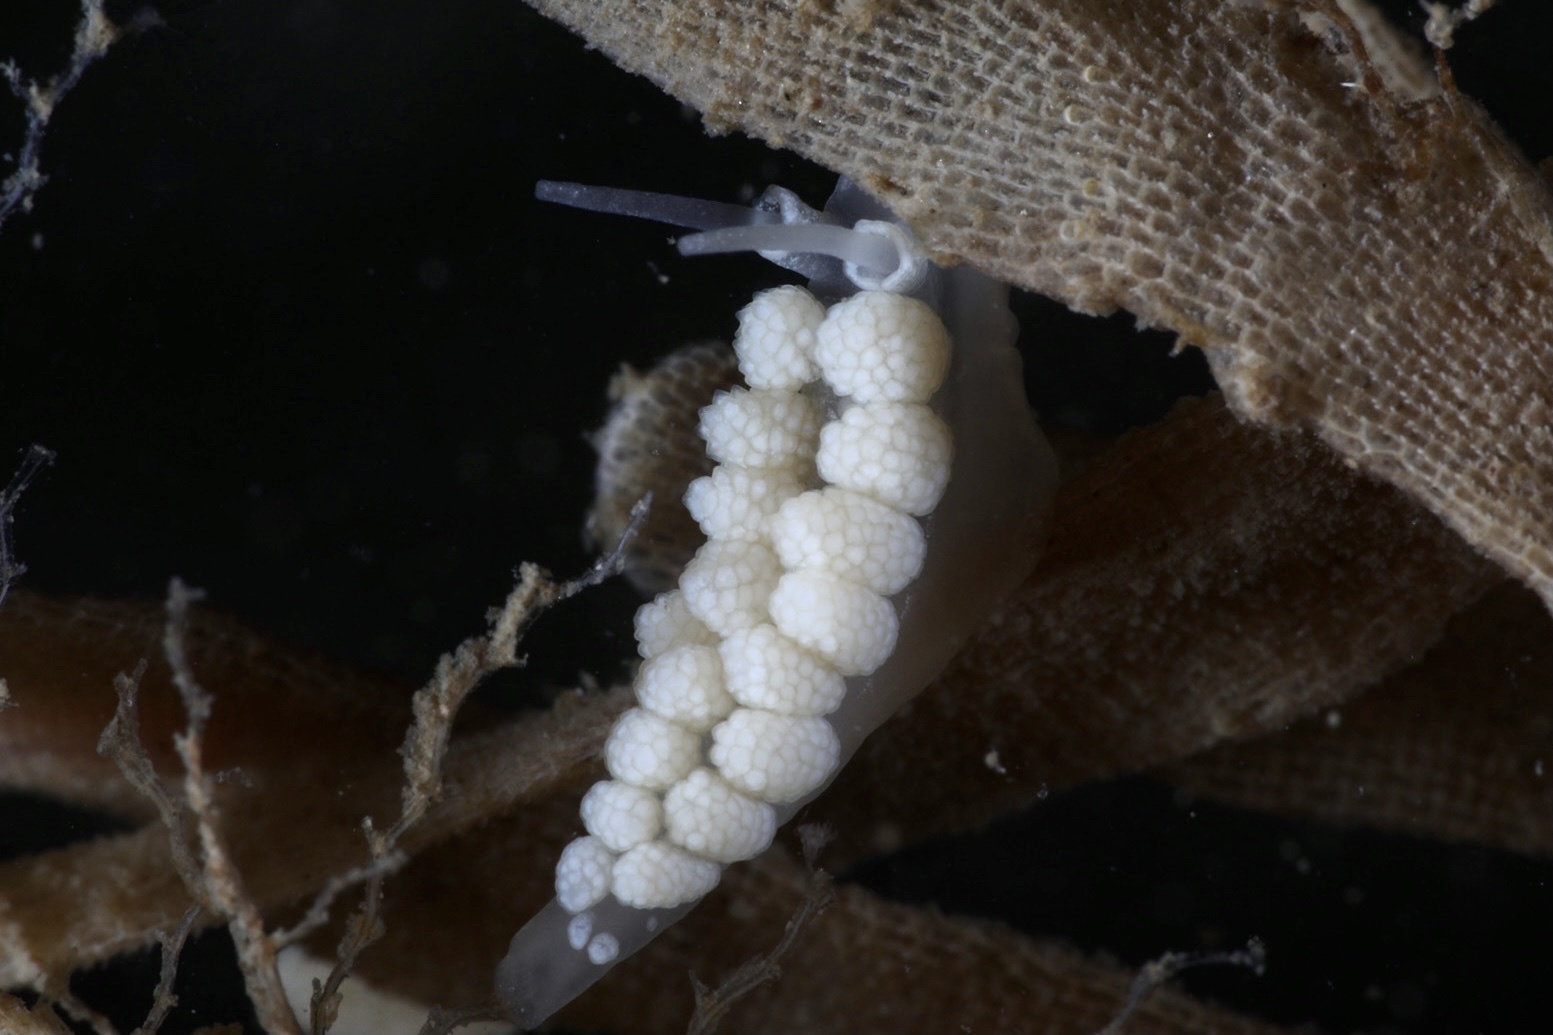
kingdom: Animalia
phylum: Mollusca
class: Gastropoda
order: Nudibranchia
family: Dotidae
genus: Doto
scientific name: Doto fragilis
